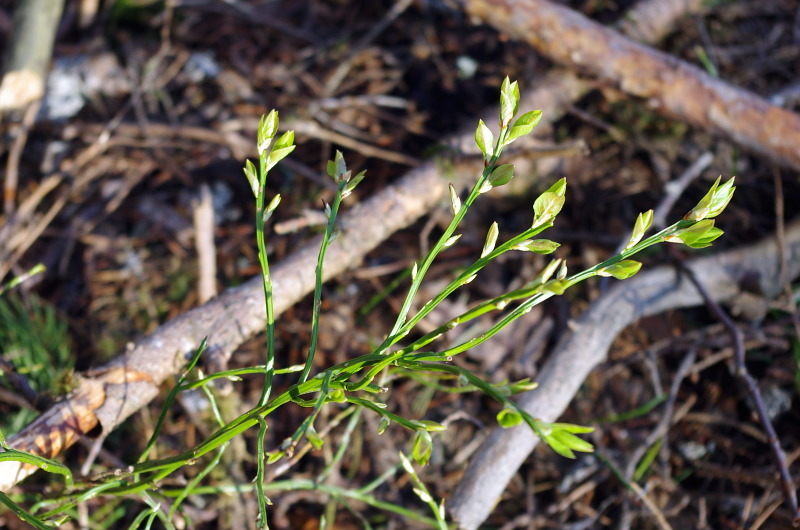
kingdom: Plantae
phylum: Tracheophyta
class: Magnoliopsida
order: Ericales
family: Ericaceae
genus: Vaccinium
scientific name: Vaccinium myrtillus
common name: Bilberry
